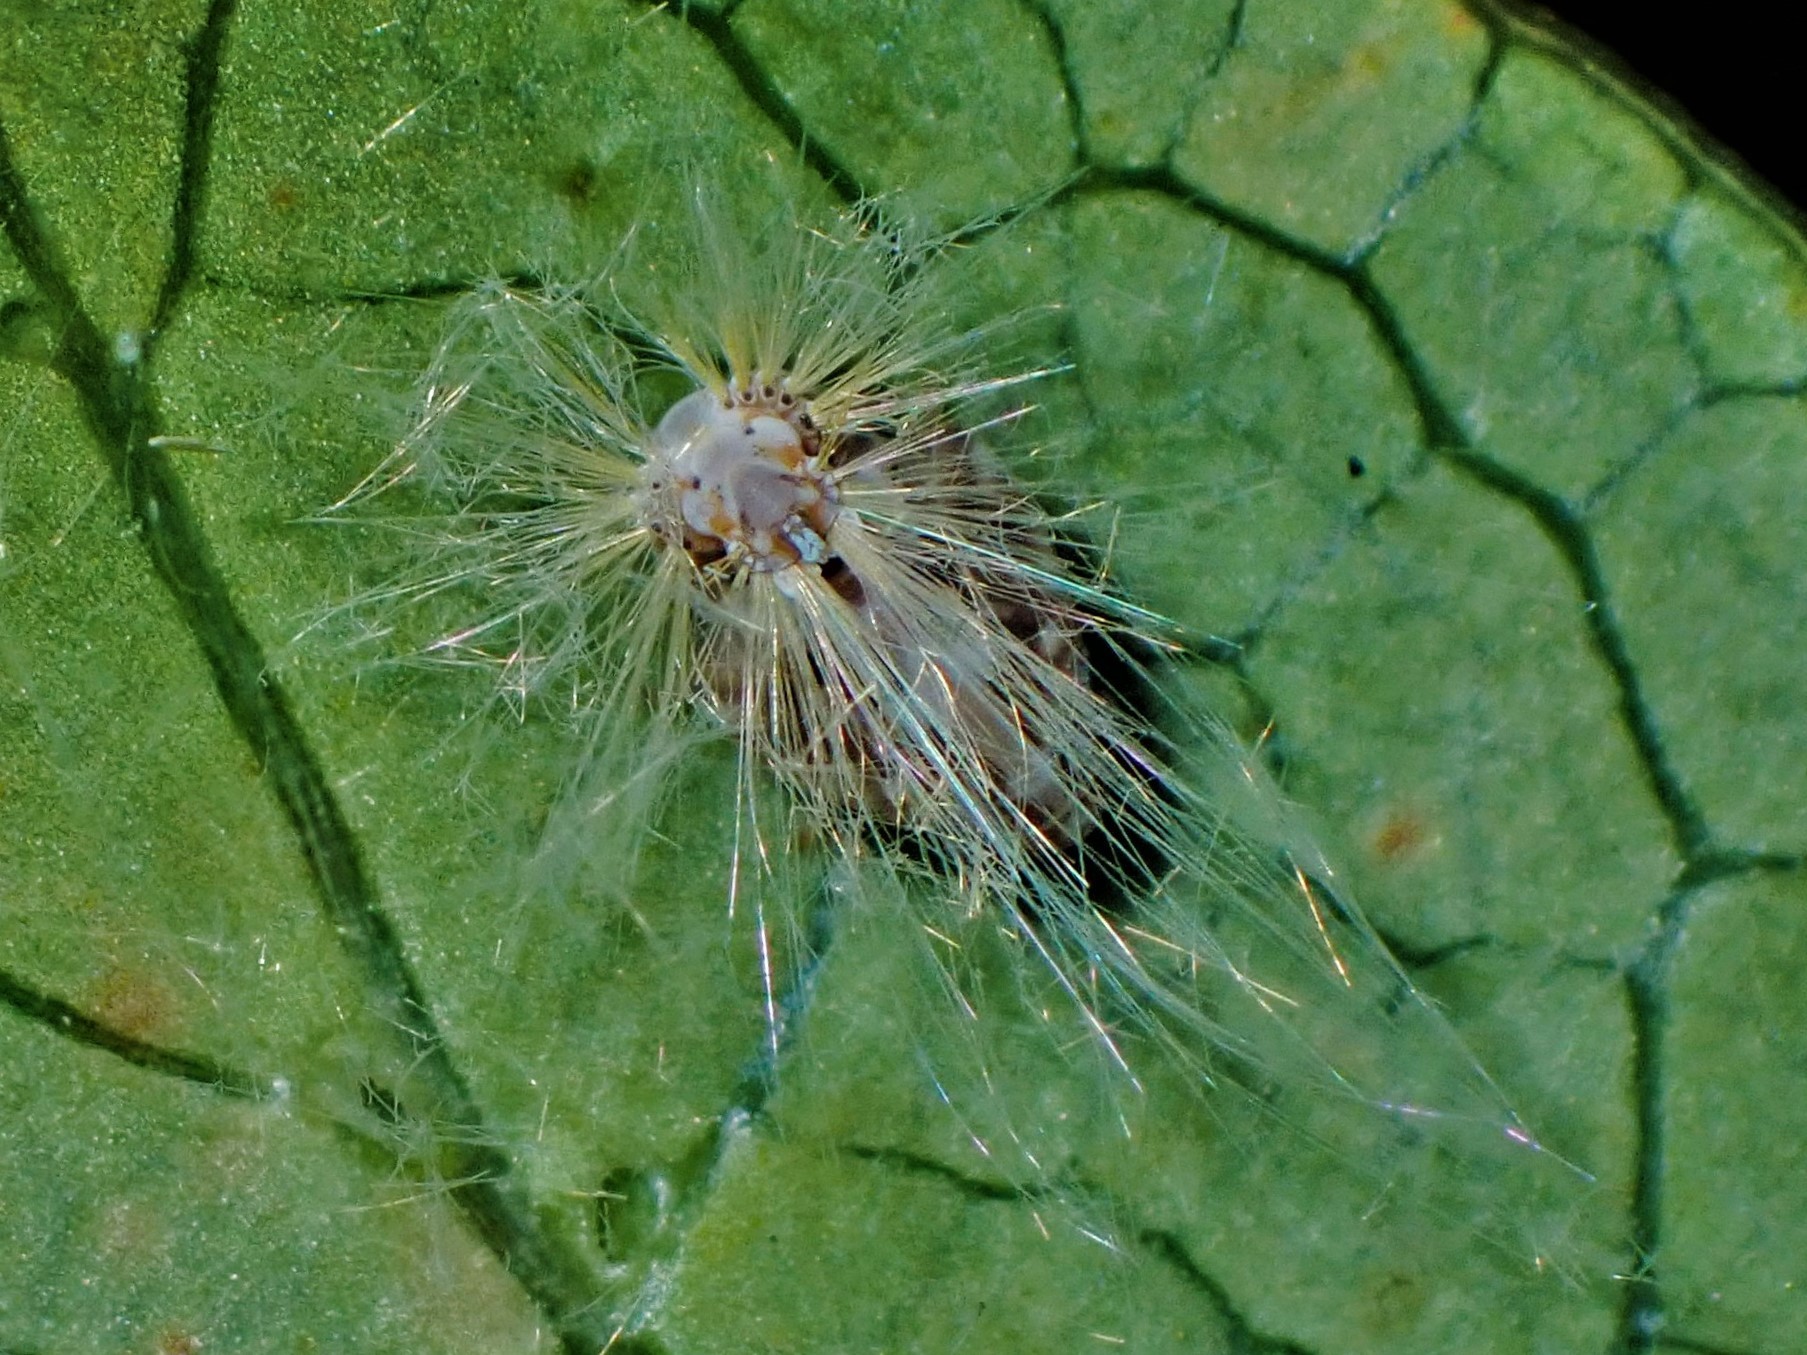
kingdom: Animalia
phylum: Arthropoda
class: Insecta
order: Hemiptera
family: Ricaniidae
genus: Scolypopa
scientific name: Scolypopa australis
